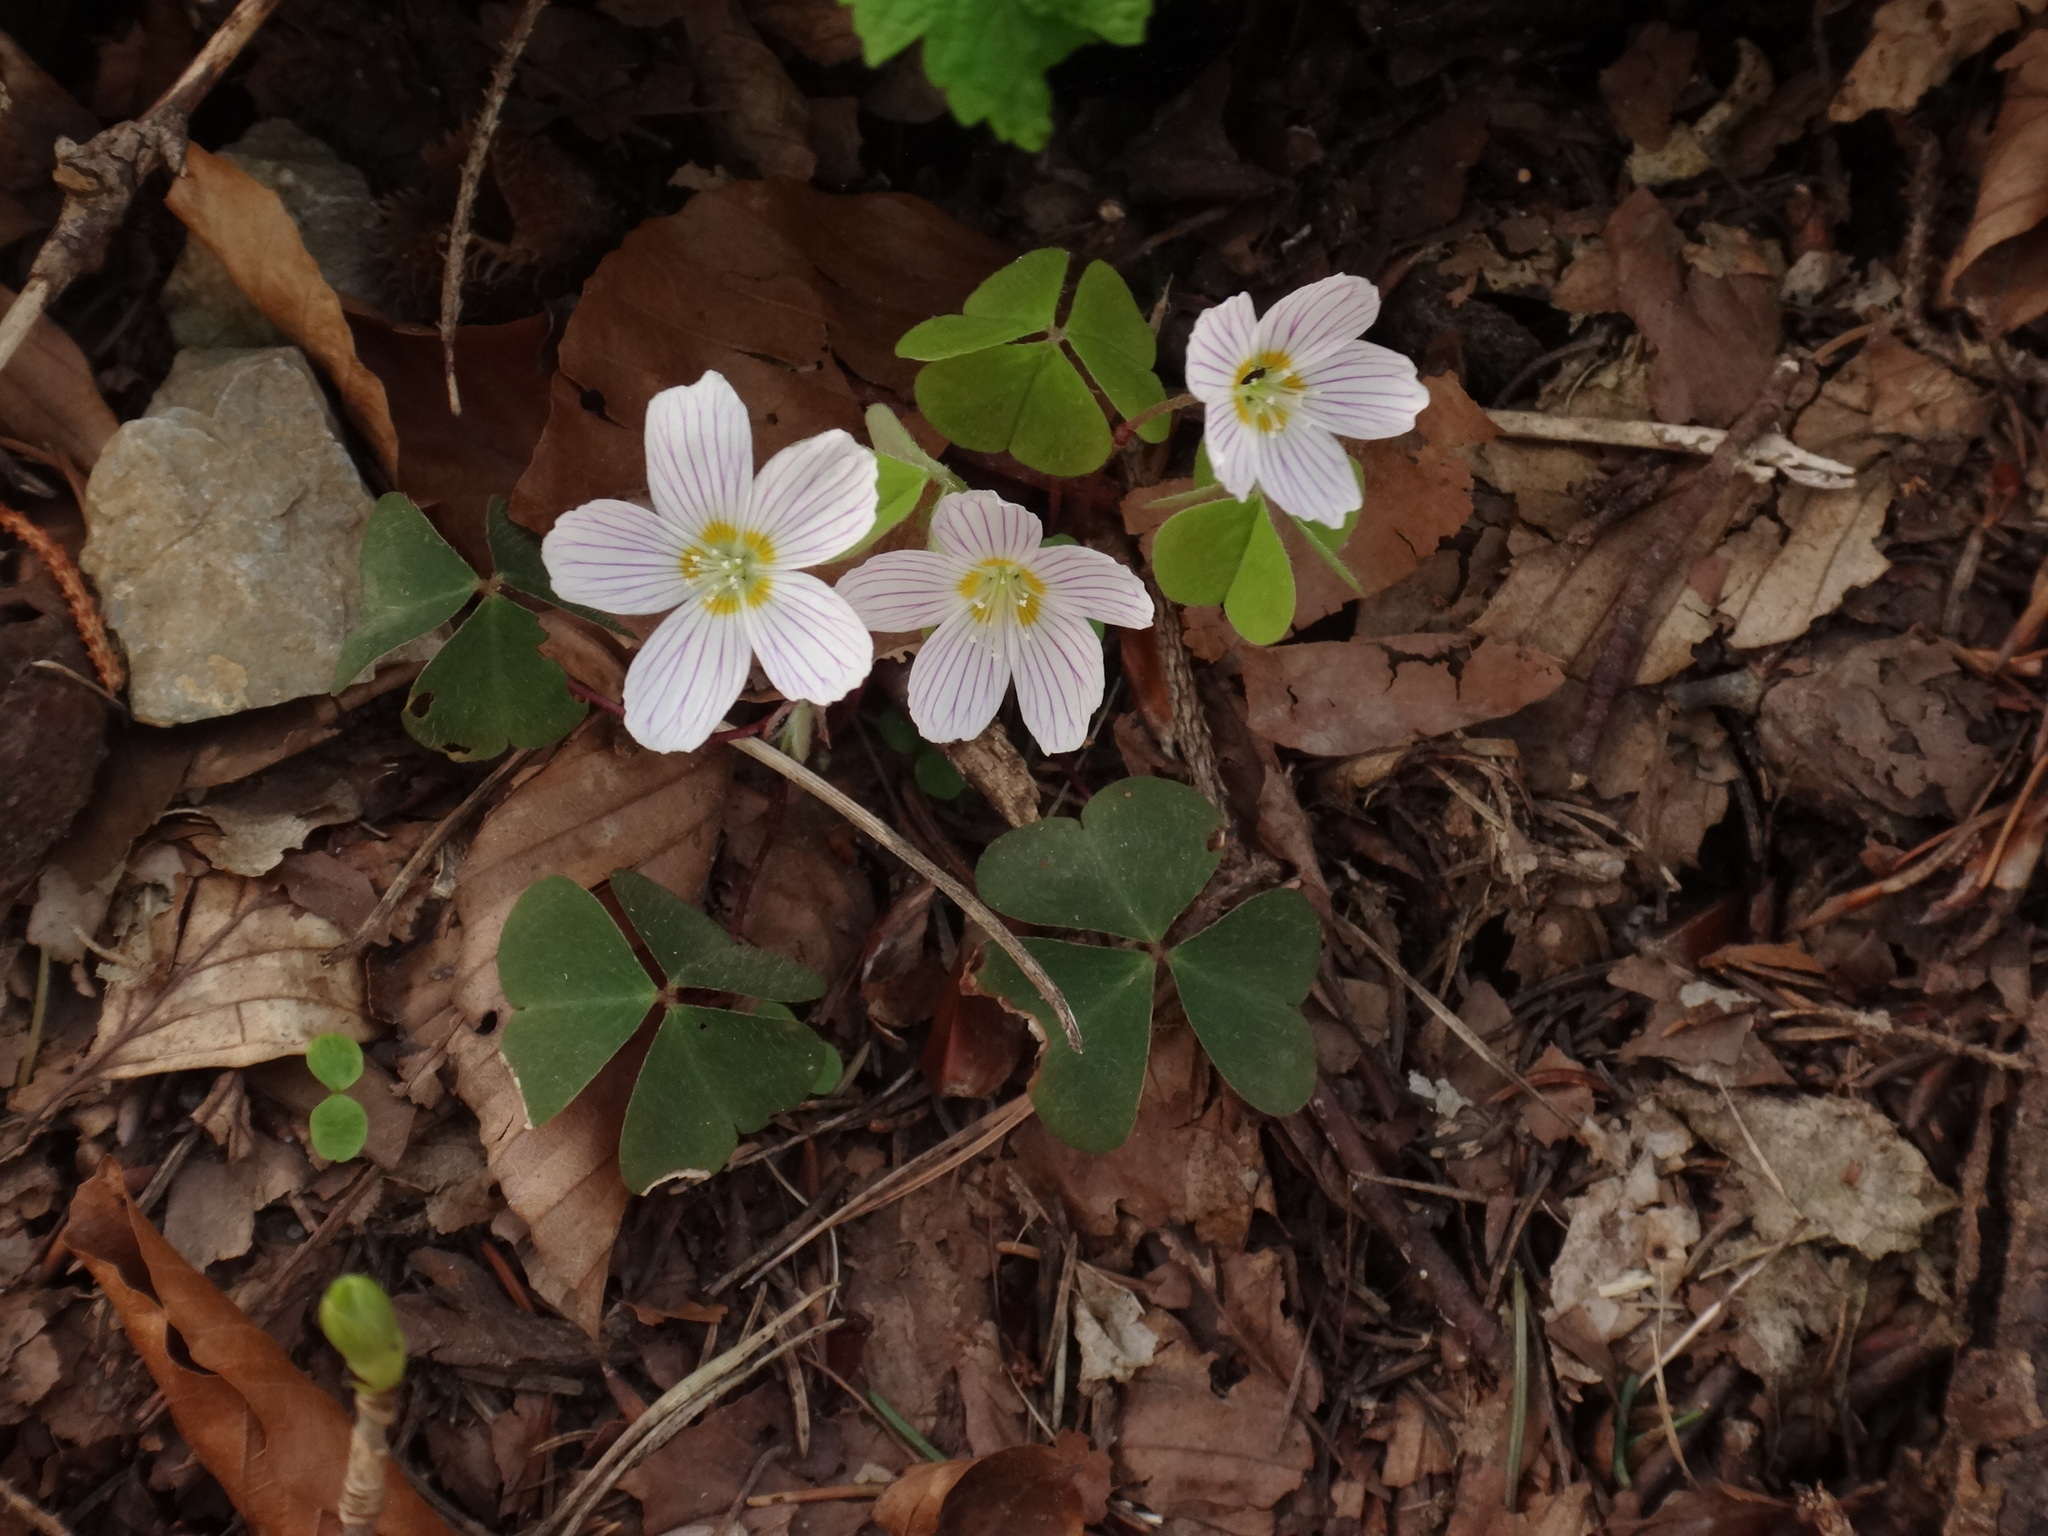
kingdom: Plantae
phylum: Tracheophyta
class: Magnoliopsida
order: Oxalidales
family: Oxalidaceae
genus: Oxalis
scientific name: Oxalis acetosella
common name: Wood-sorrel
